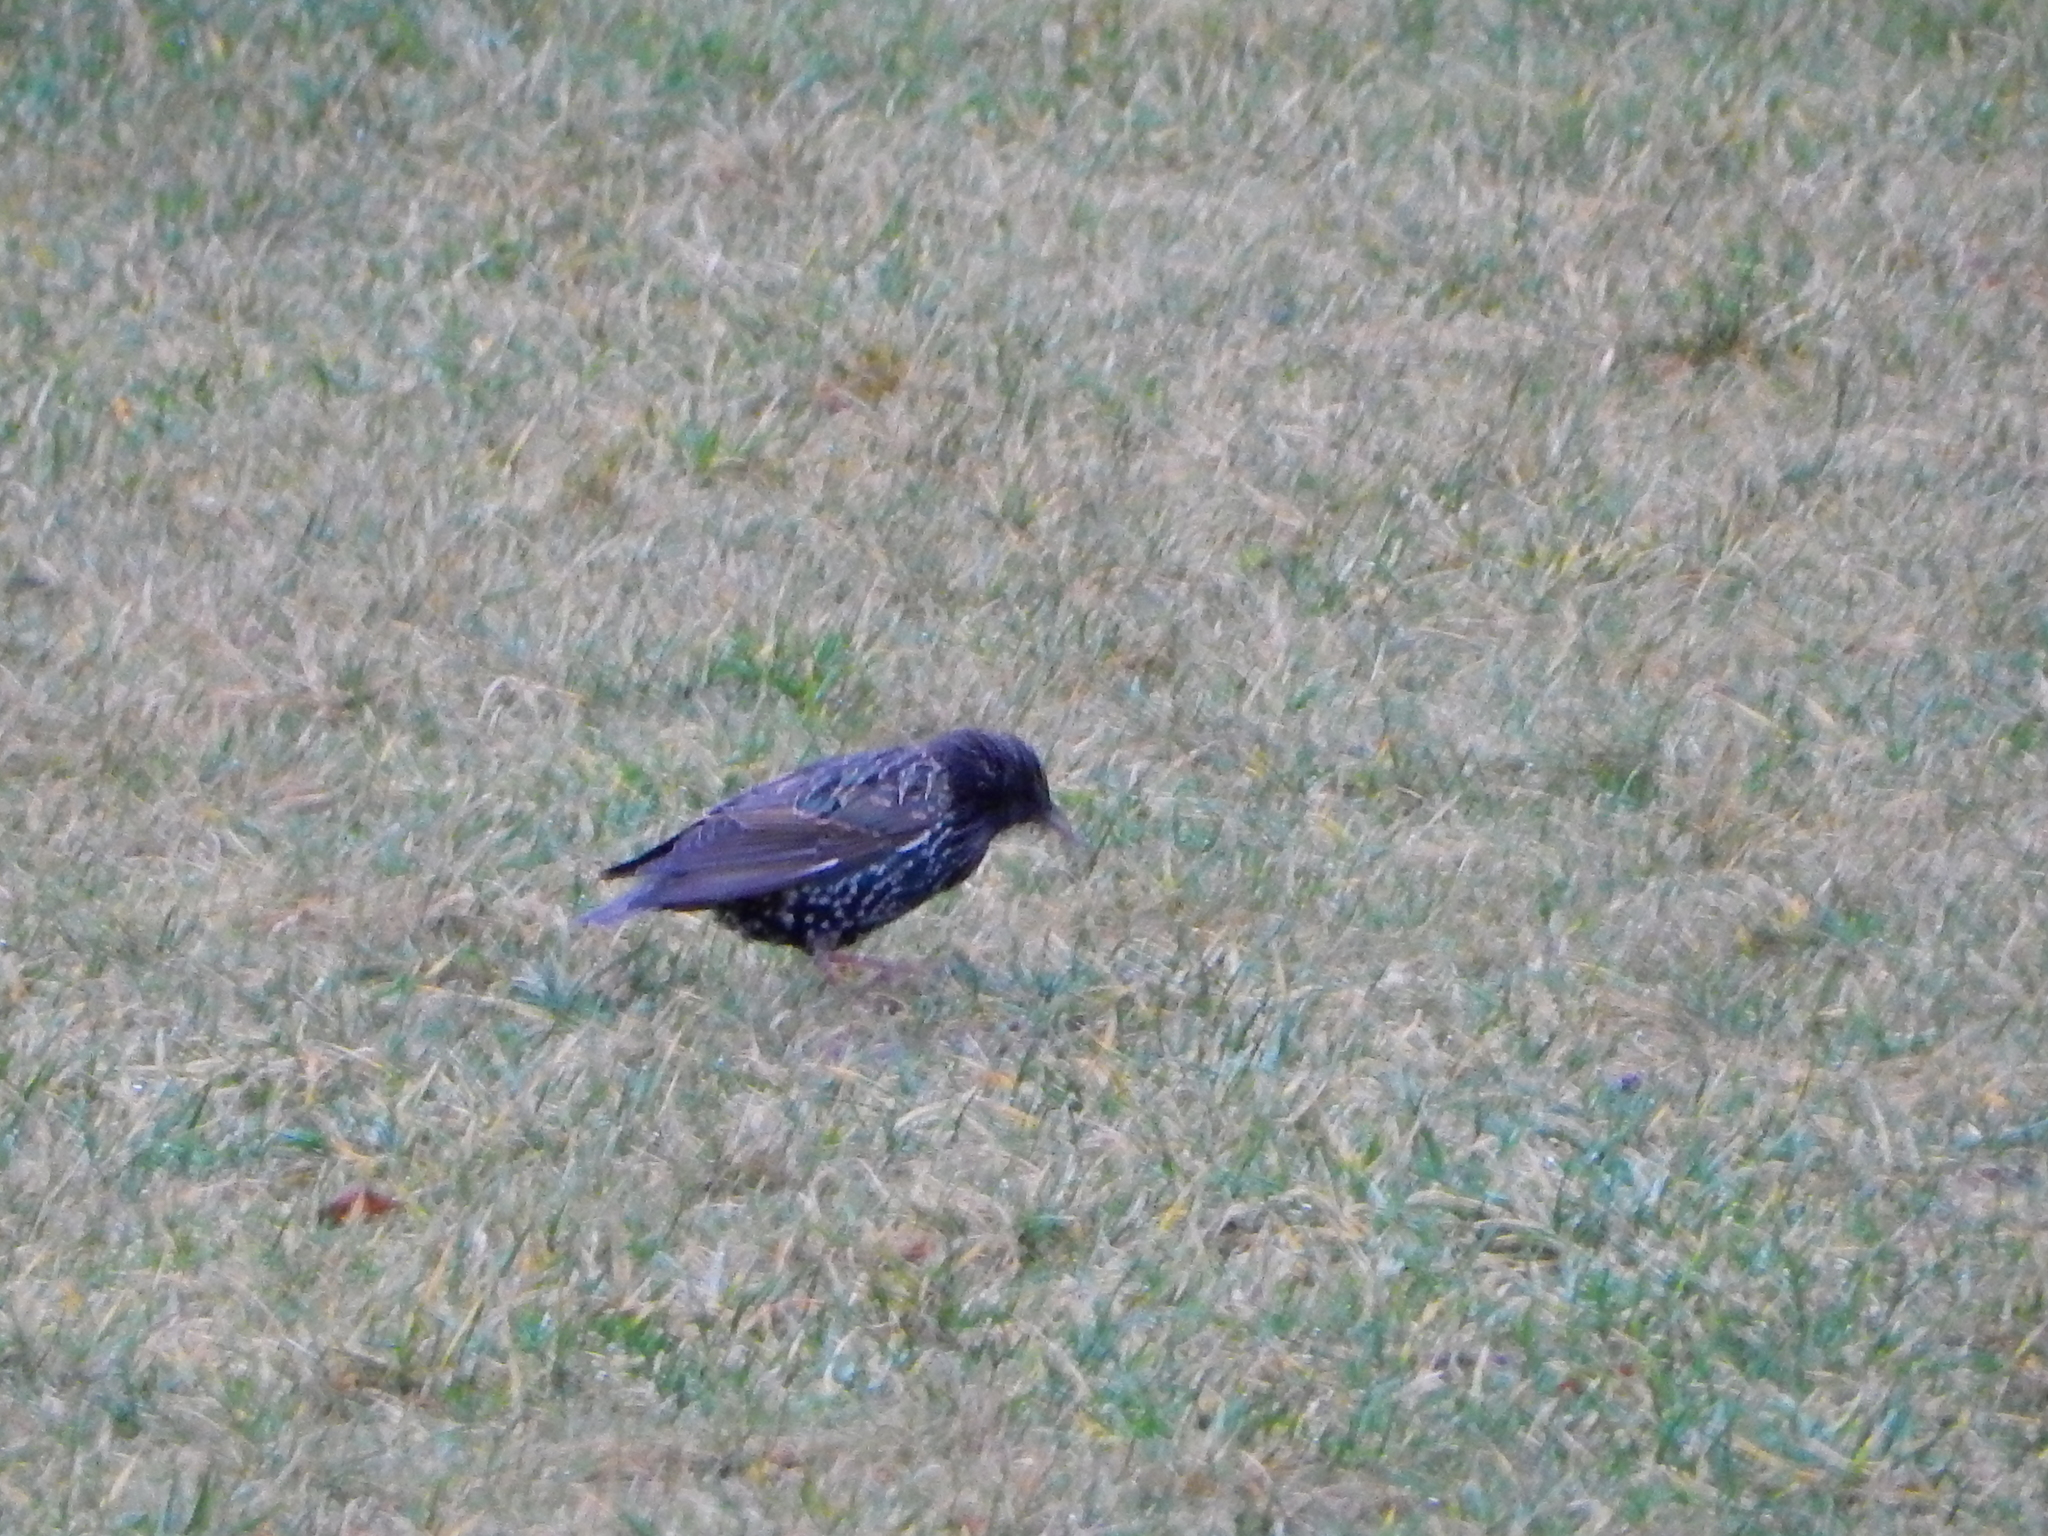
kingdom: Animalia
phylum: Chordata
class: Aves
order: Passeriformes
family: Sturnidae
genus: Sturnus
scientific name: Sturnus vulgaris
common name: Common starling
